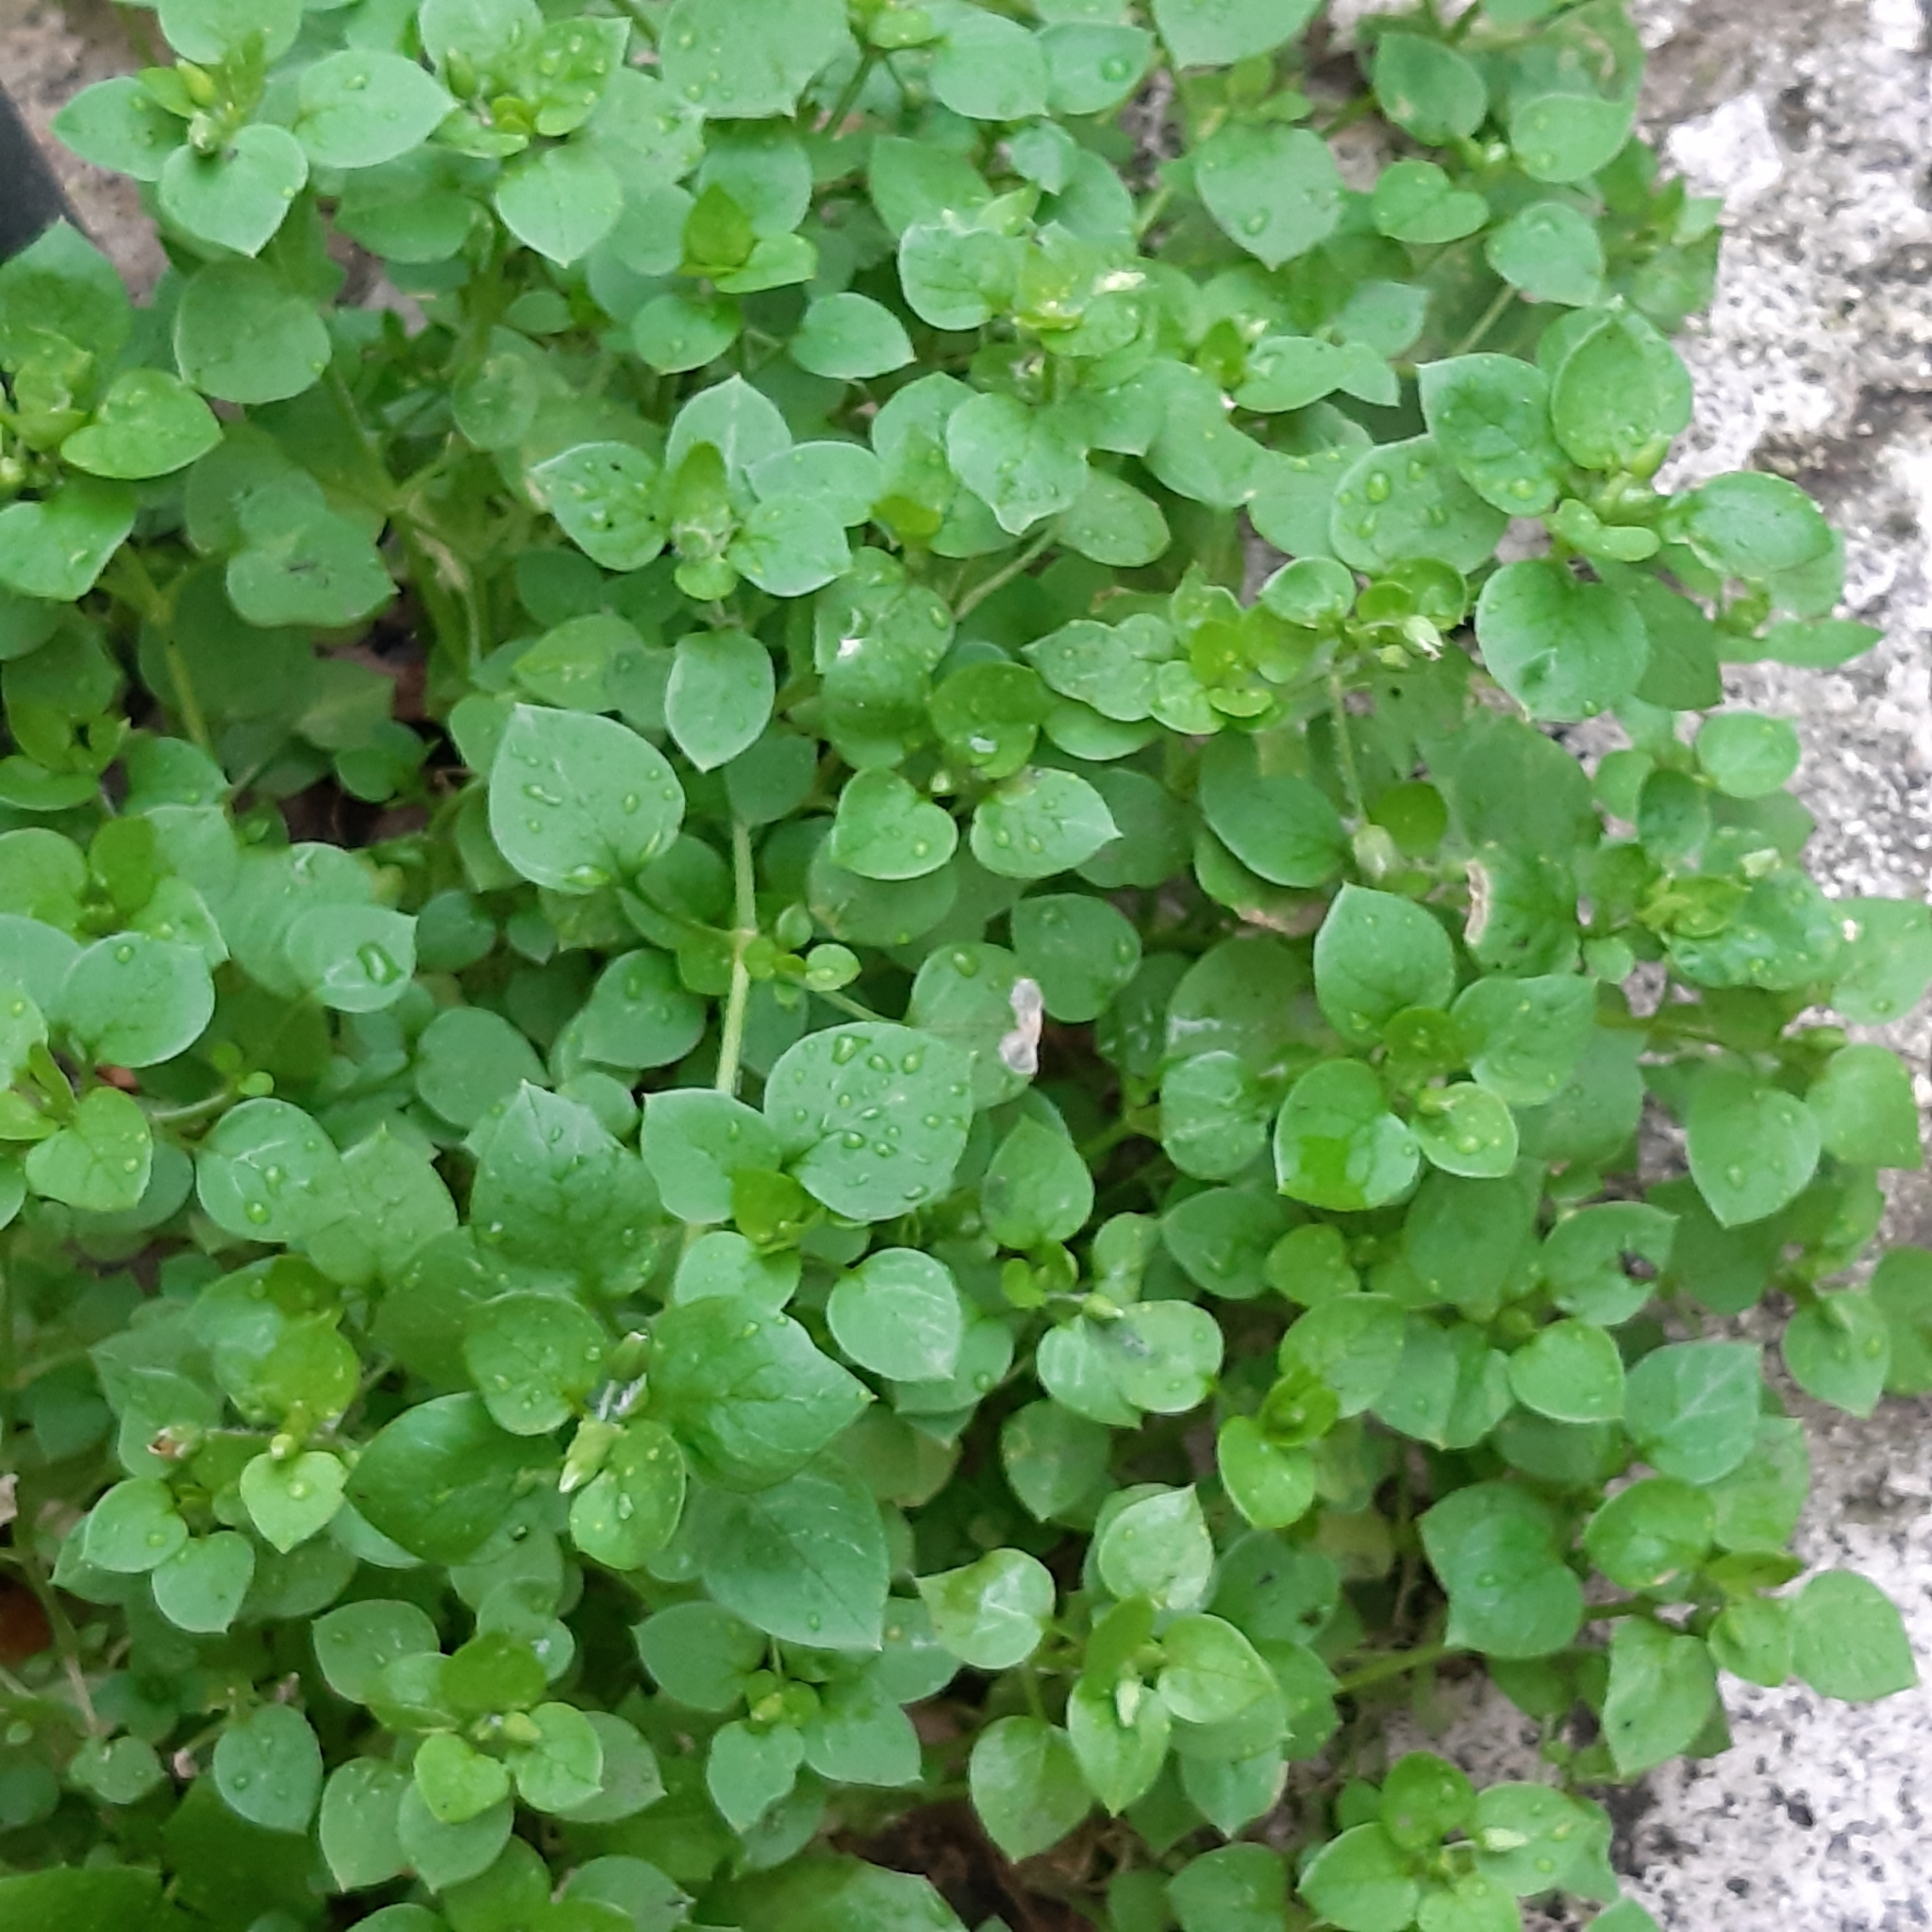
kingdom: Plantae
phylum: Tracheophyta
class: Magnoliopsida
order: Caryophyllales
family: Caryophyllaceae
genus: Stellaria
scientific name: Stellaria media
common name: Common chickweed
